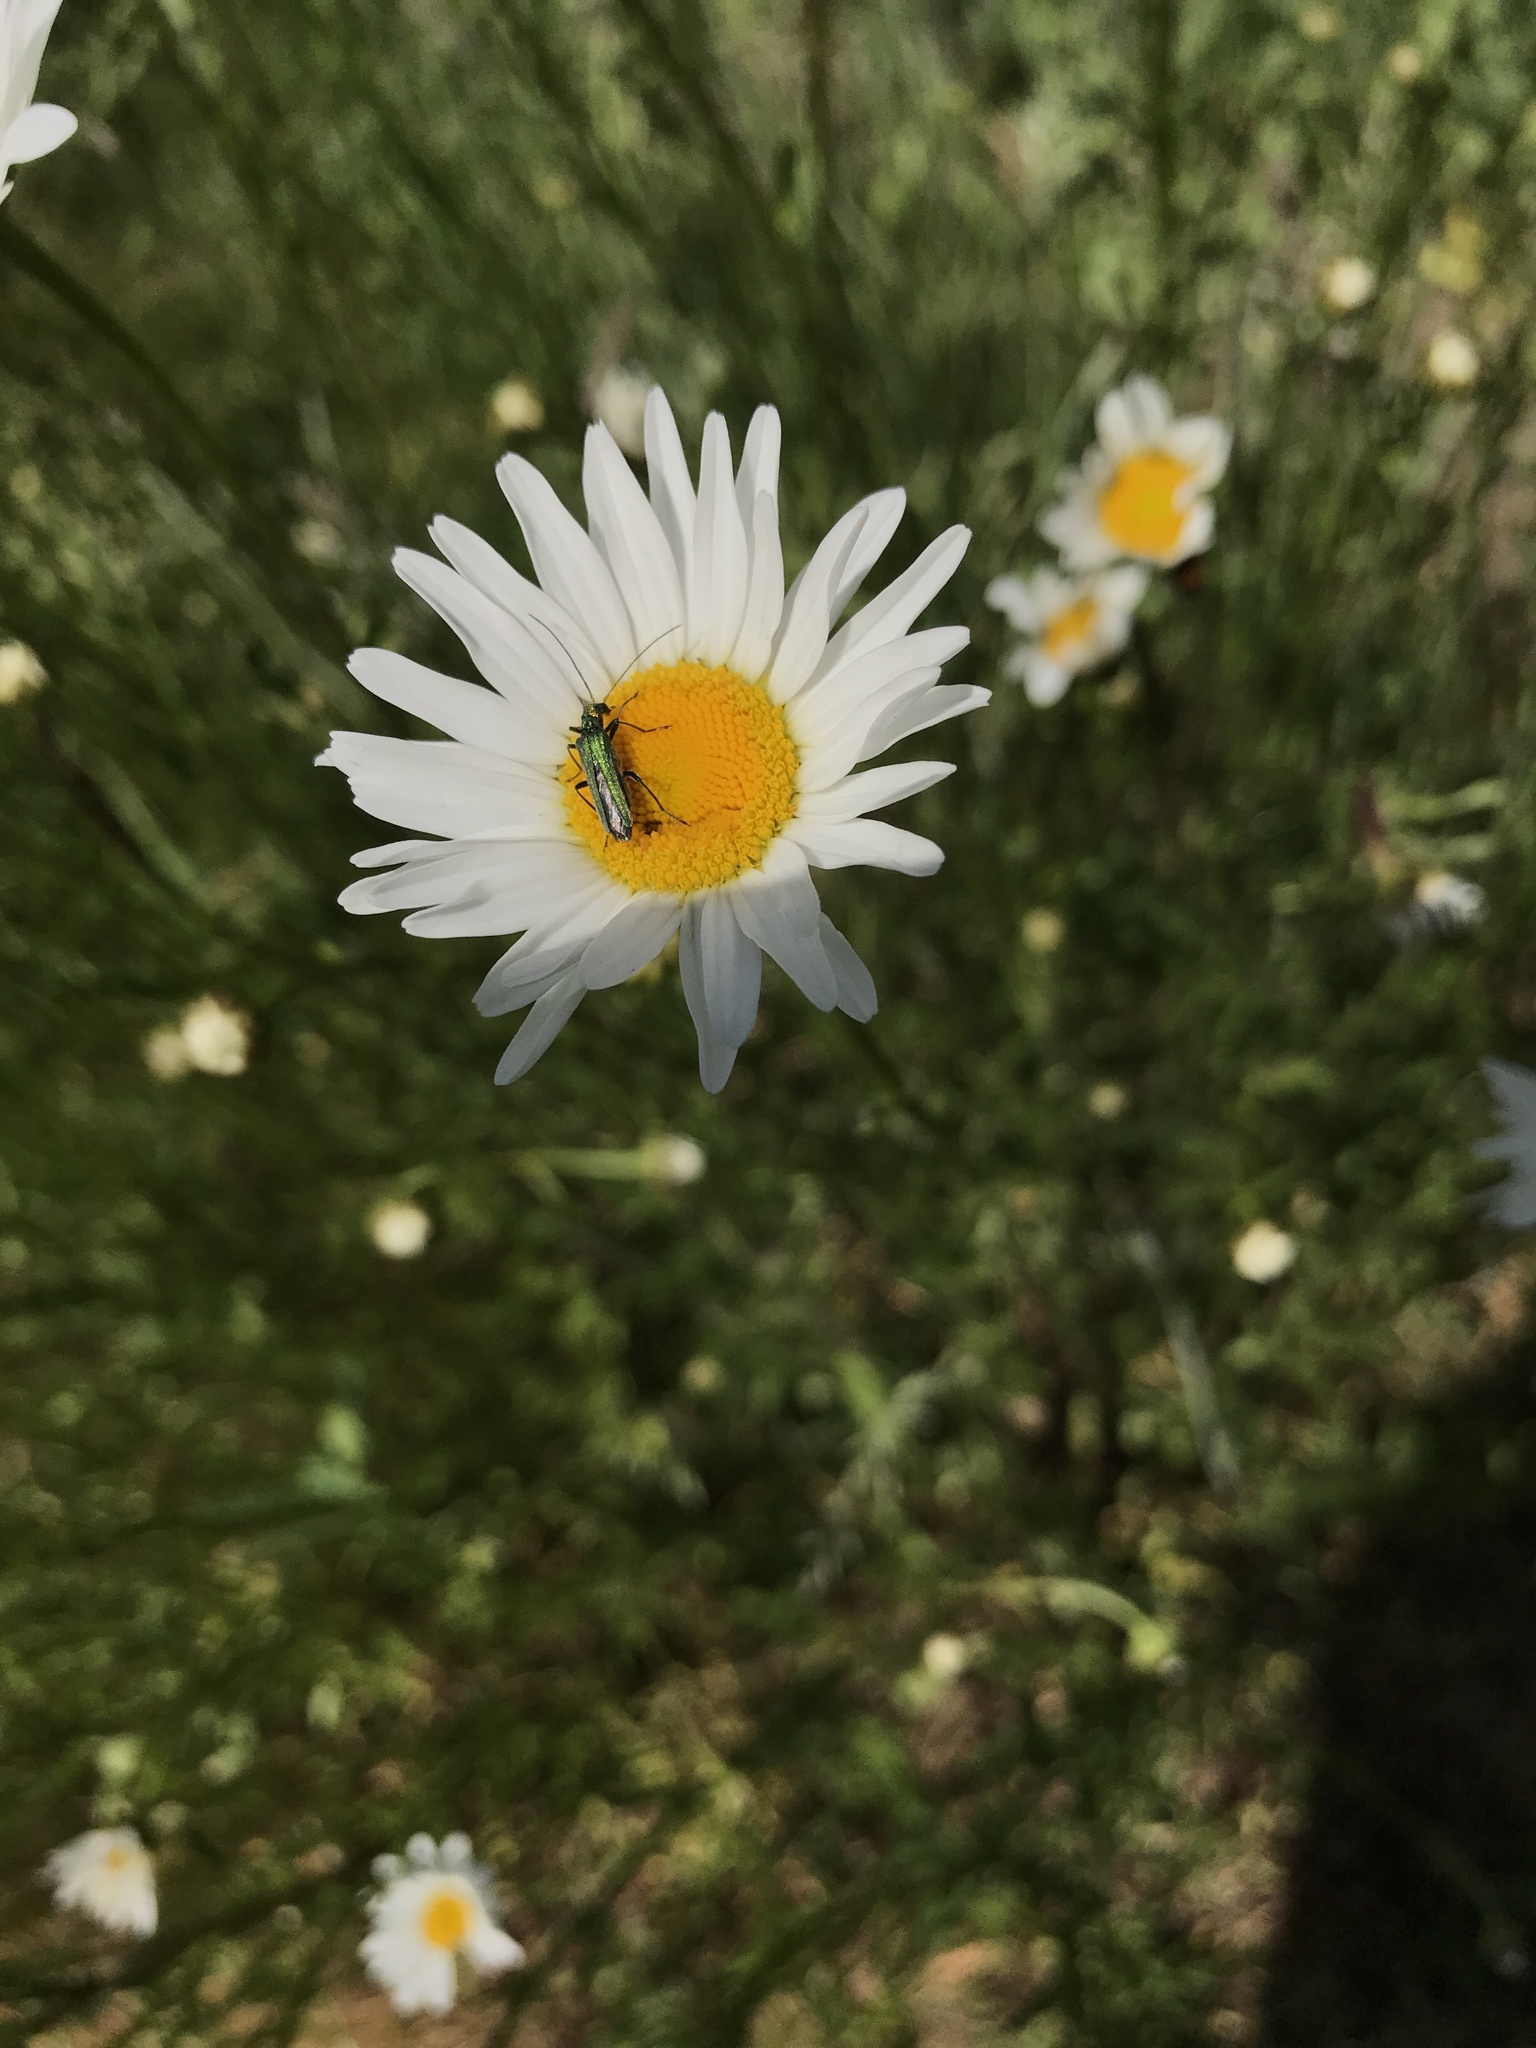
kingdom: Animalia
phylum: Arthropoda
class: Insecta
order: Coleoptera
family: Oedemeridae
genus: Oedemera
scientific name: Oedemera nobilis
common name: Swollen-thighed beetle
